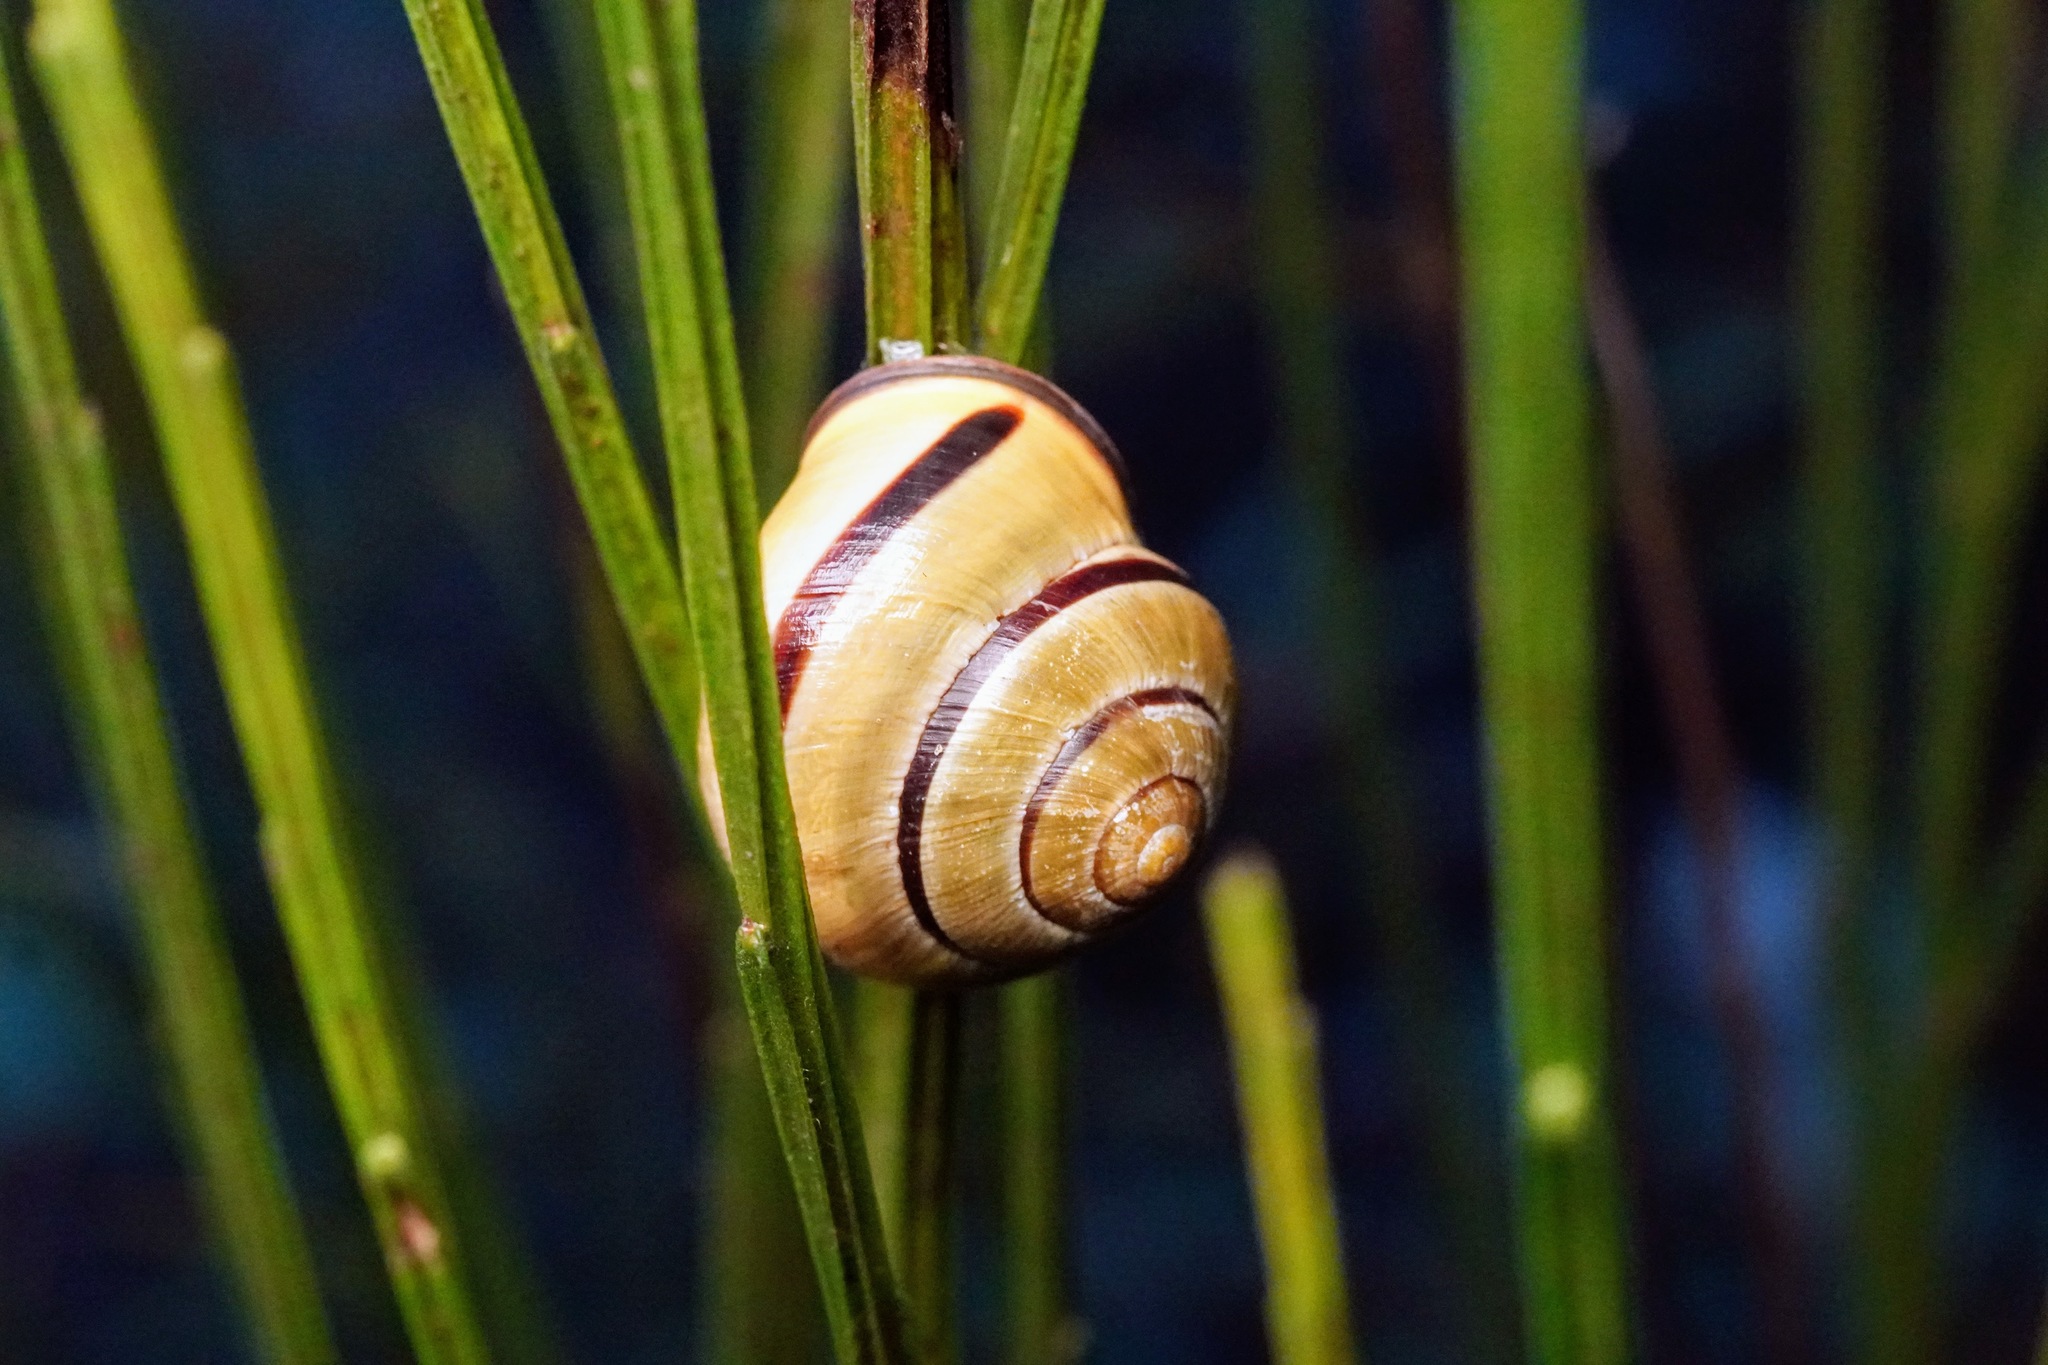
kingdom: Animalia
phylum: Mollusca
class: Gastropoda
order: Stylommatophora
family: Helicidae
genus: Cepaea
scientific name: Cepaea nemoralis
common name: Grovesnail
